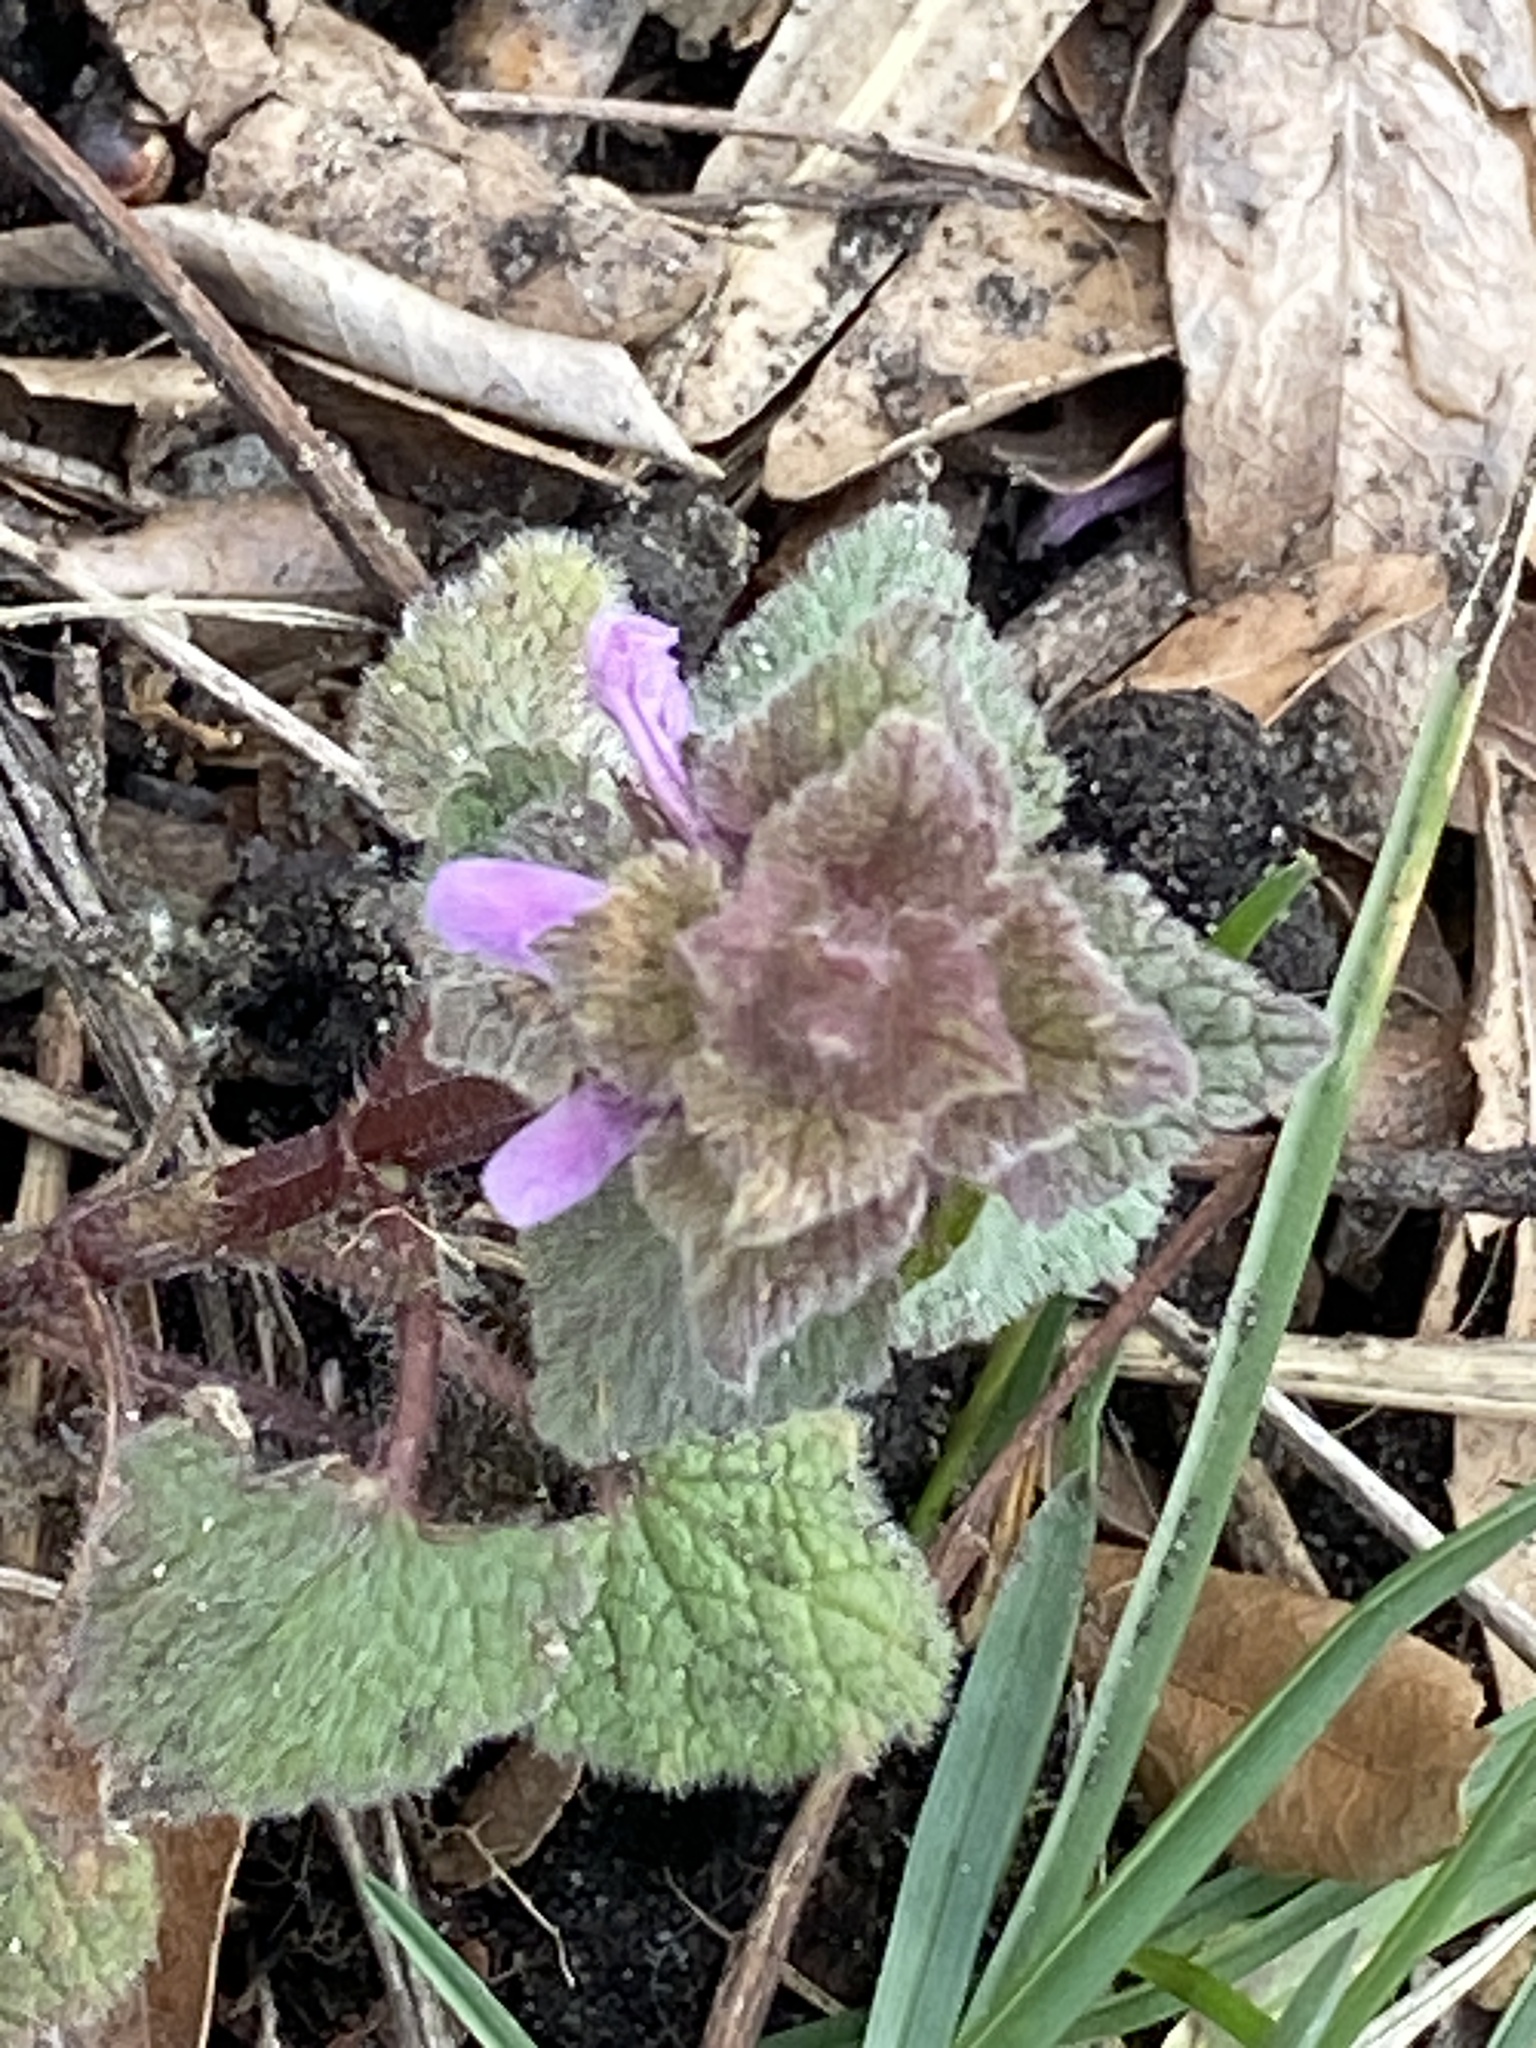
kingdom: Plantae
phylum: Tracheophyta
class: Magnoliopsida
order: Lamiales
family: Lamiaceae
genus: Lamium
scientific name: Lamium purpureum
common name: Red dead-nettle
